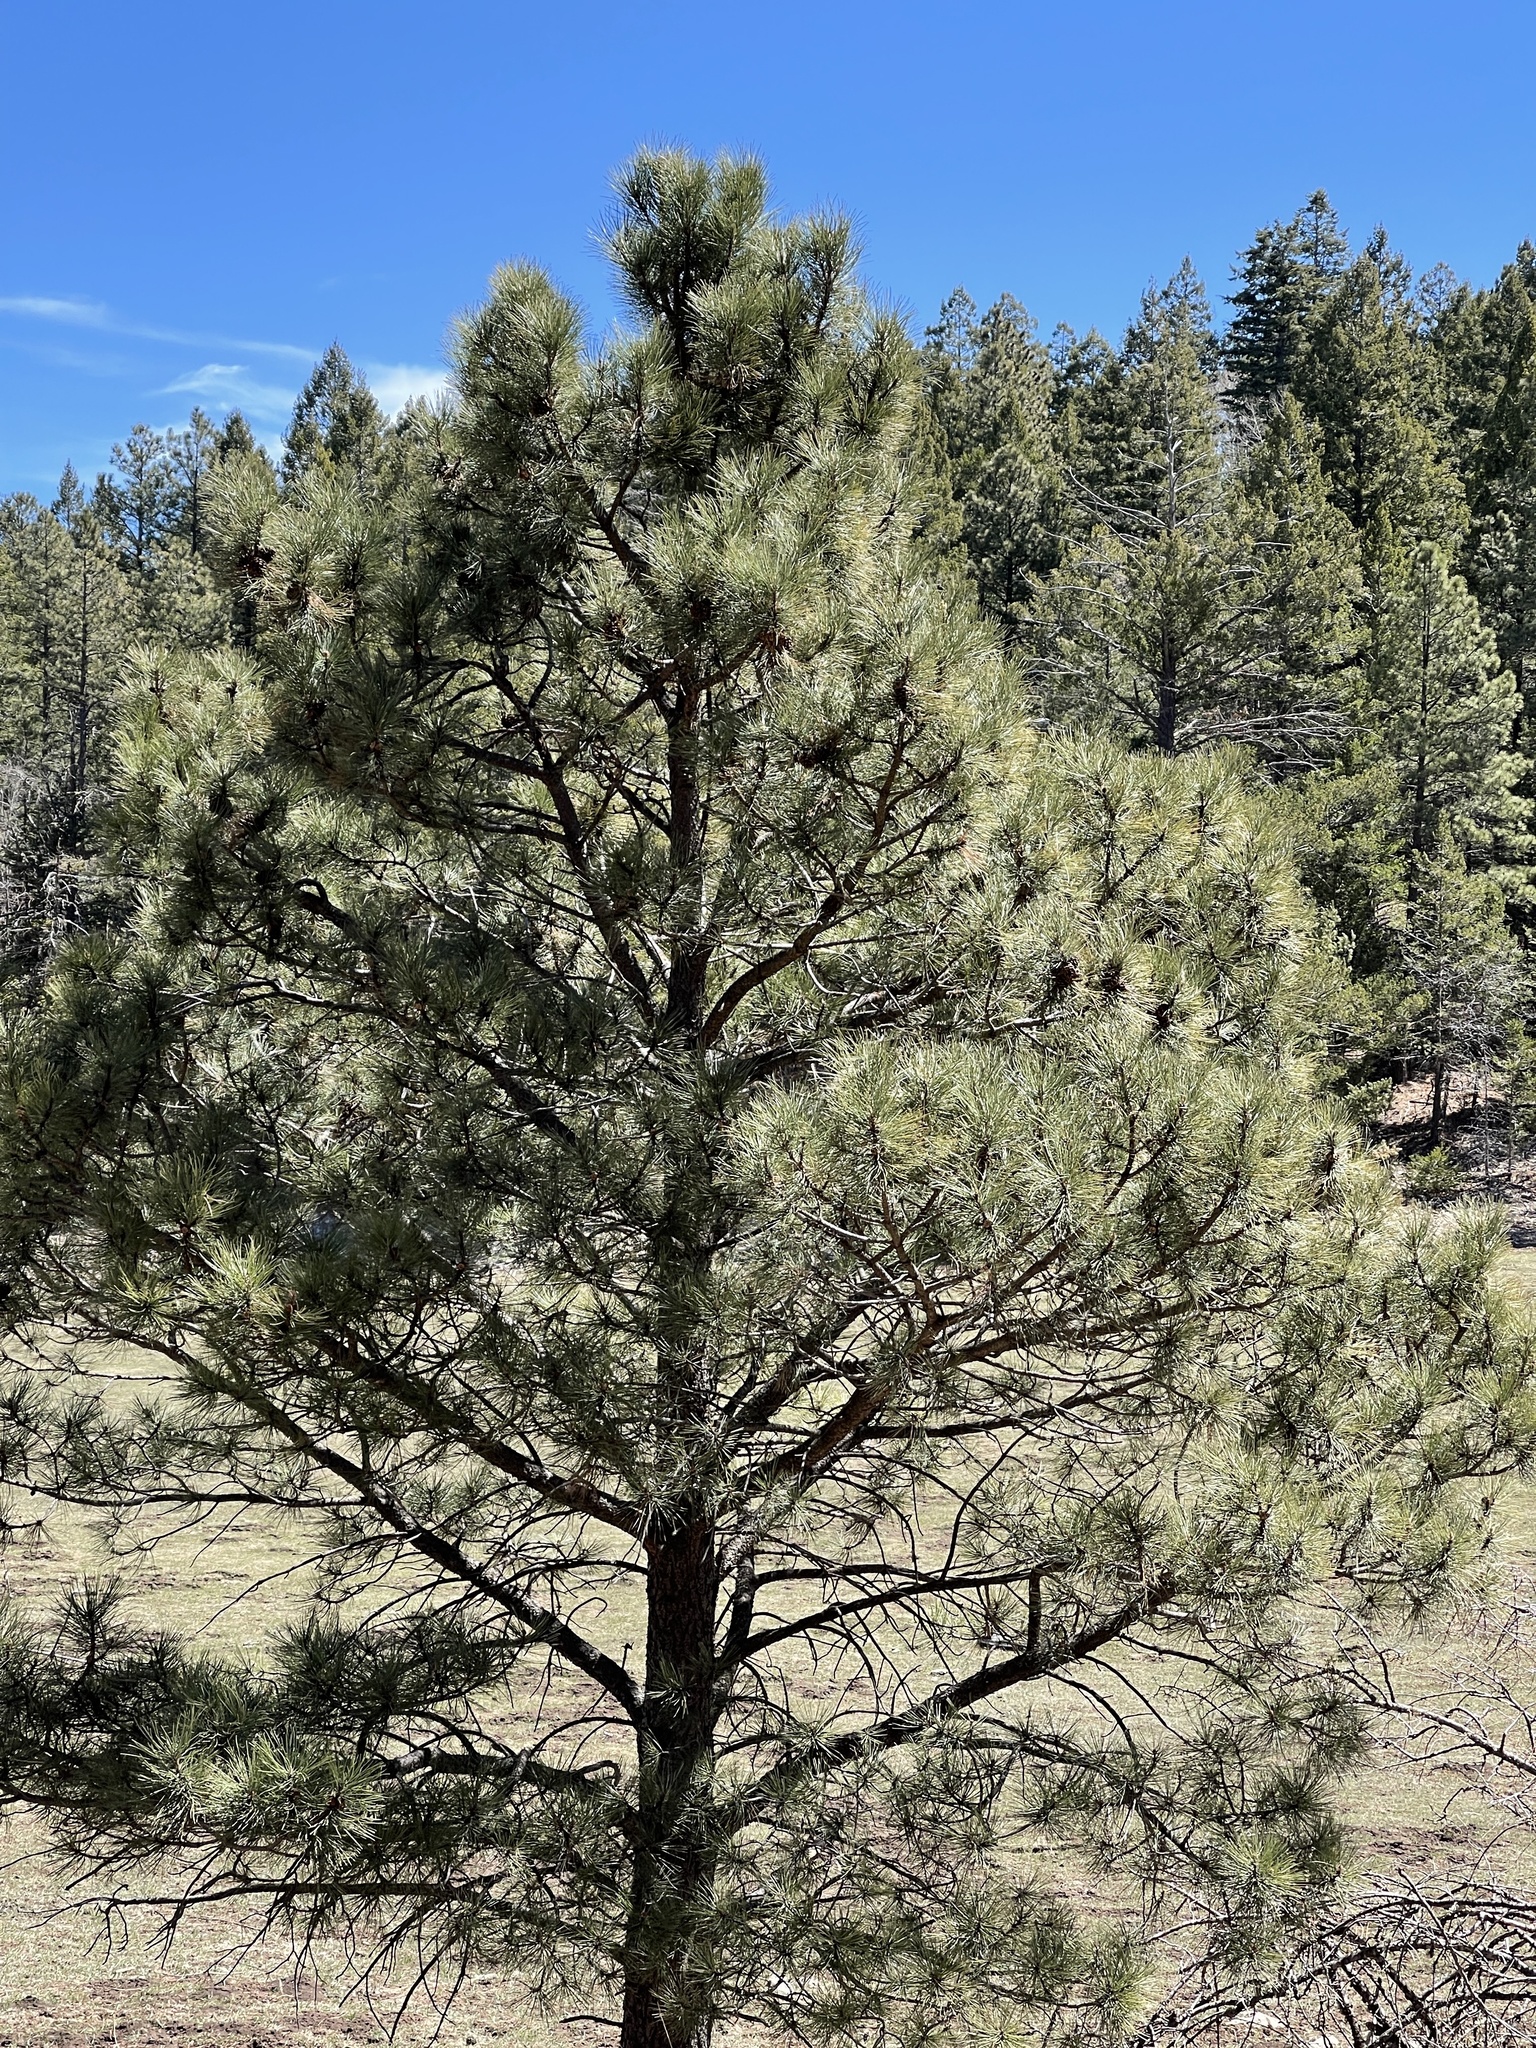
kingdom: Plantae
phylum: Tracheophyta
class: Pinopsida
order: Pinales
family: Pinaceae
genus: Pinus
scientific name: Pinus ponderosa
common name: Western yellow-pine
